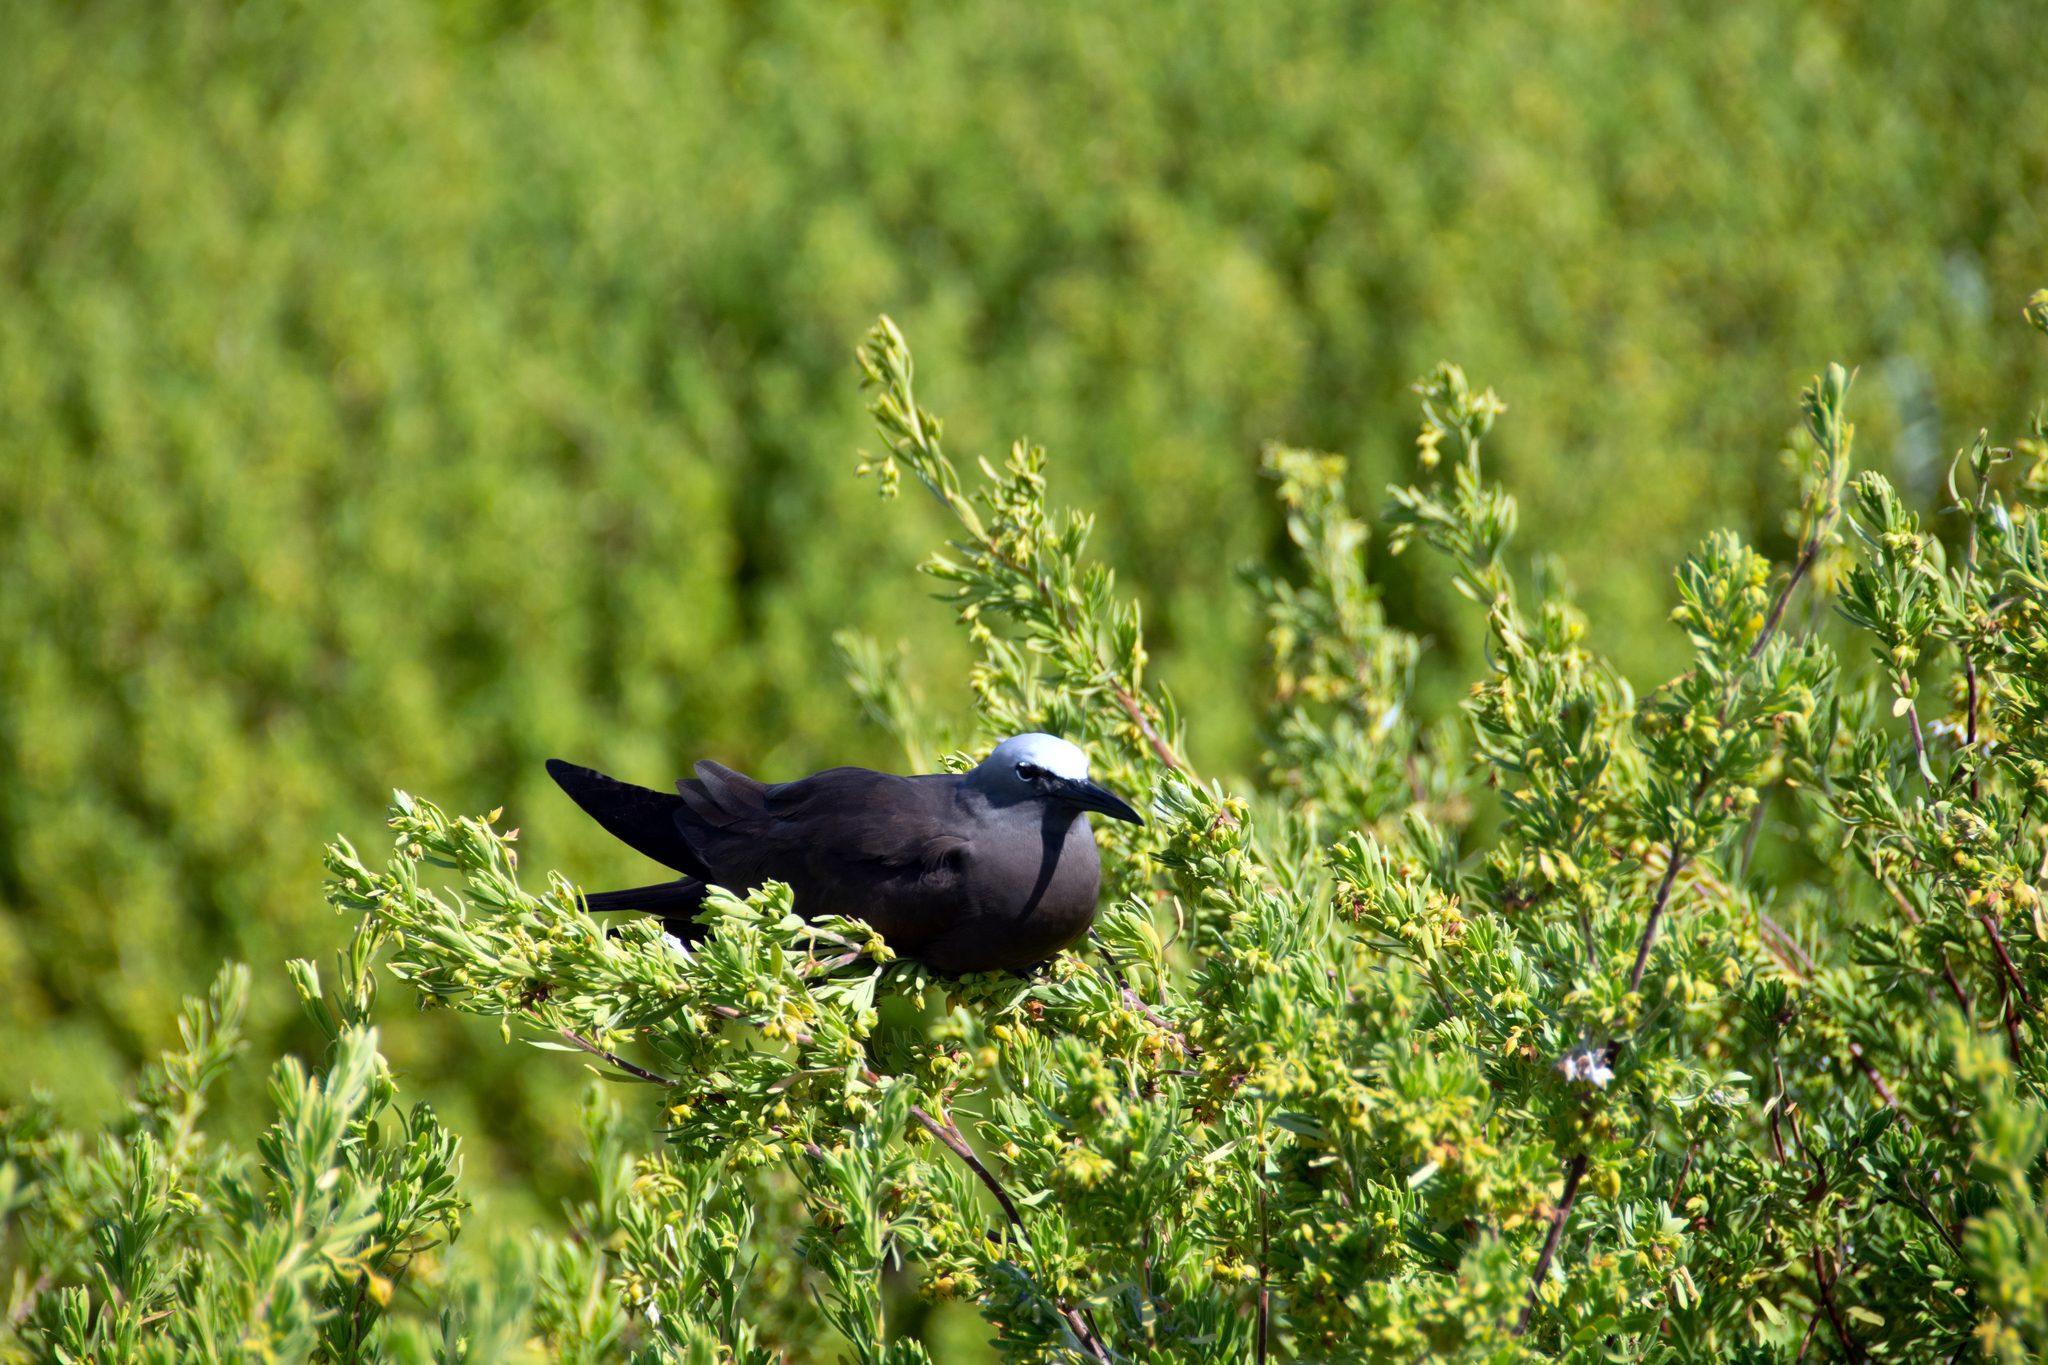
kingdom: Animalia
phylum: Chordata
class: Aves
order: Charadriiformes
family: Laridae
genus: Anous
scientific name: Anous stolidus
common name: Brown noddy
